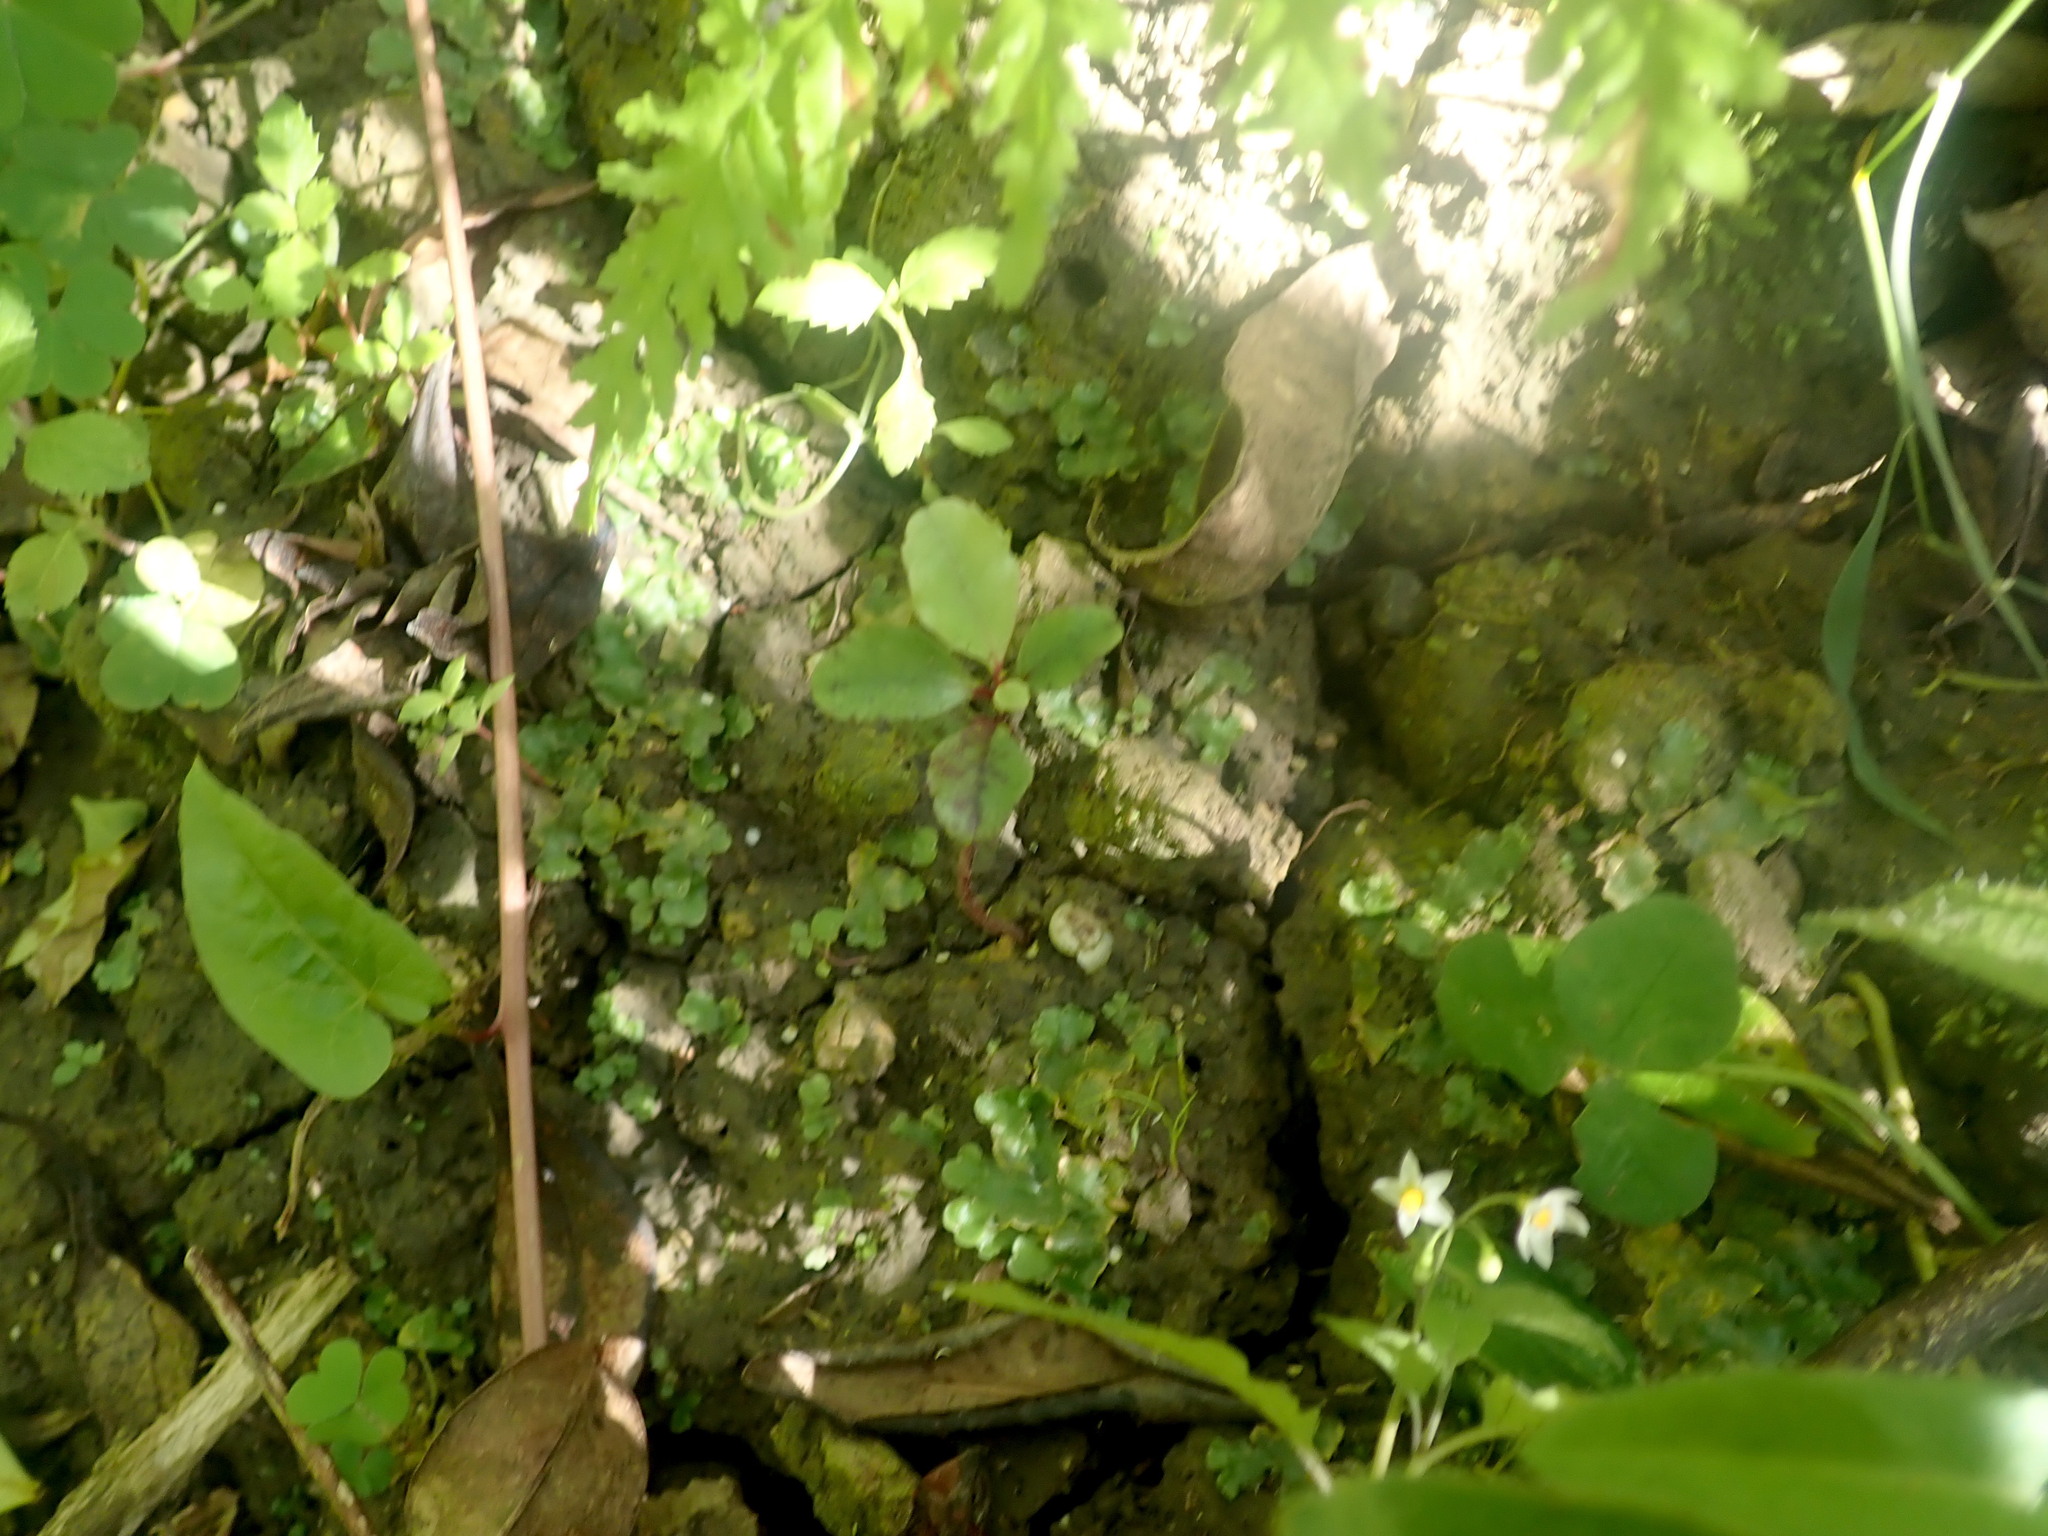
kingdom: Plantae
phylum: Tracheophyta
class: Magnoliopsida
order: Ericales
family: Primulaceae
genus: Myrsine
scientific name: Myrsine australis
